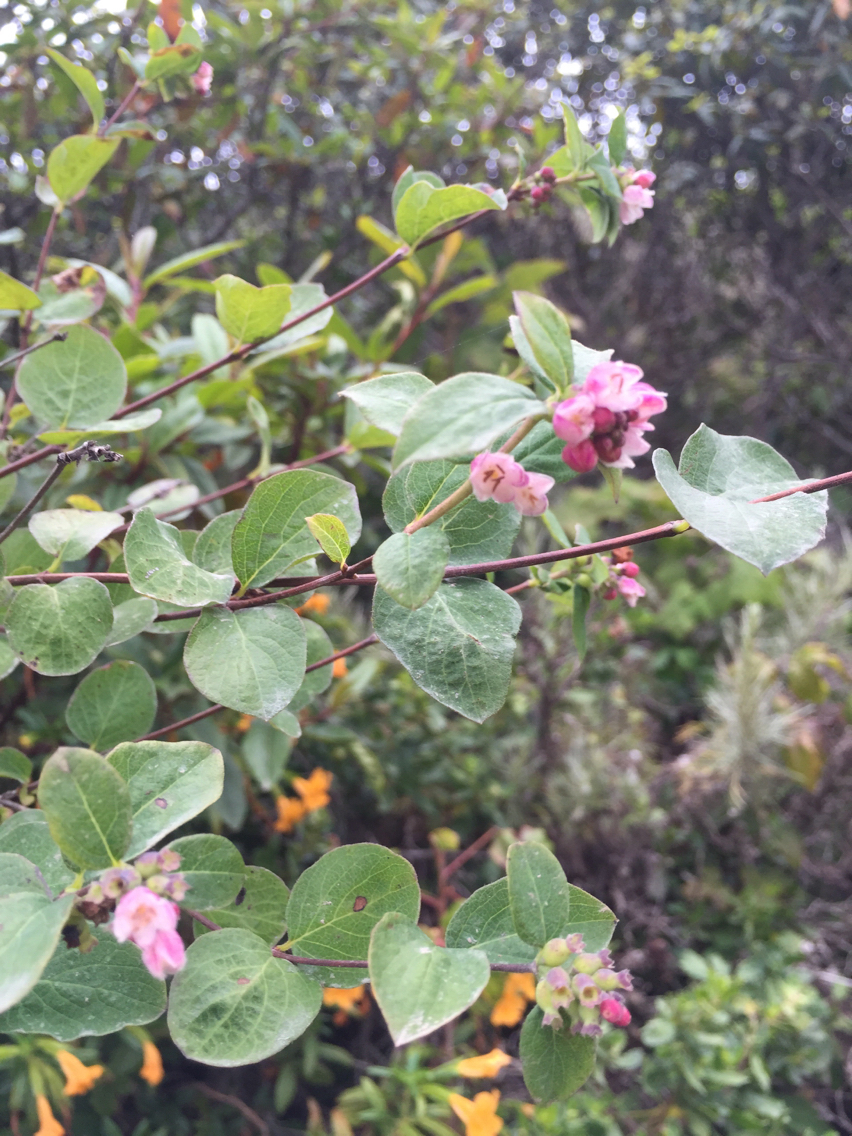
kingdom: Plantae
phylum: Tracheophyta
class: Magnoliopsida
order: Dipsacales
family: Caprifoliaceae
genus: Symphoricarpos
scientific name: Symphoricarpos albus
